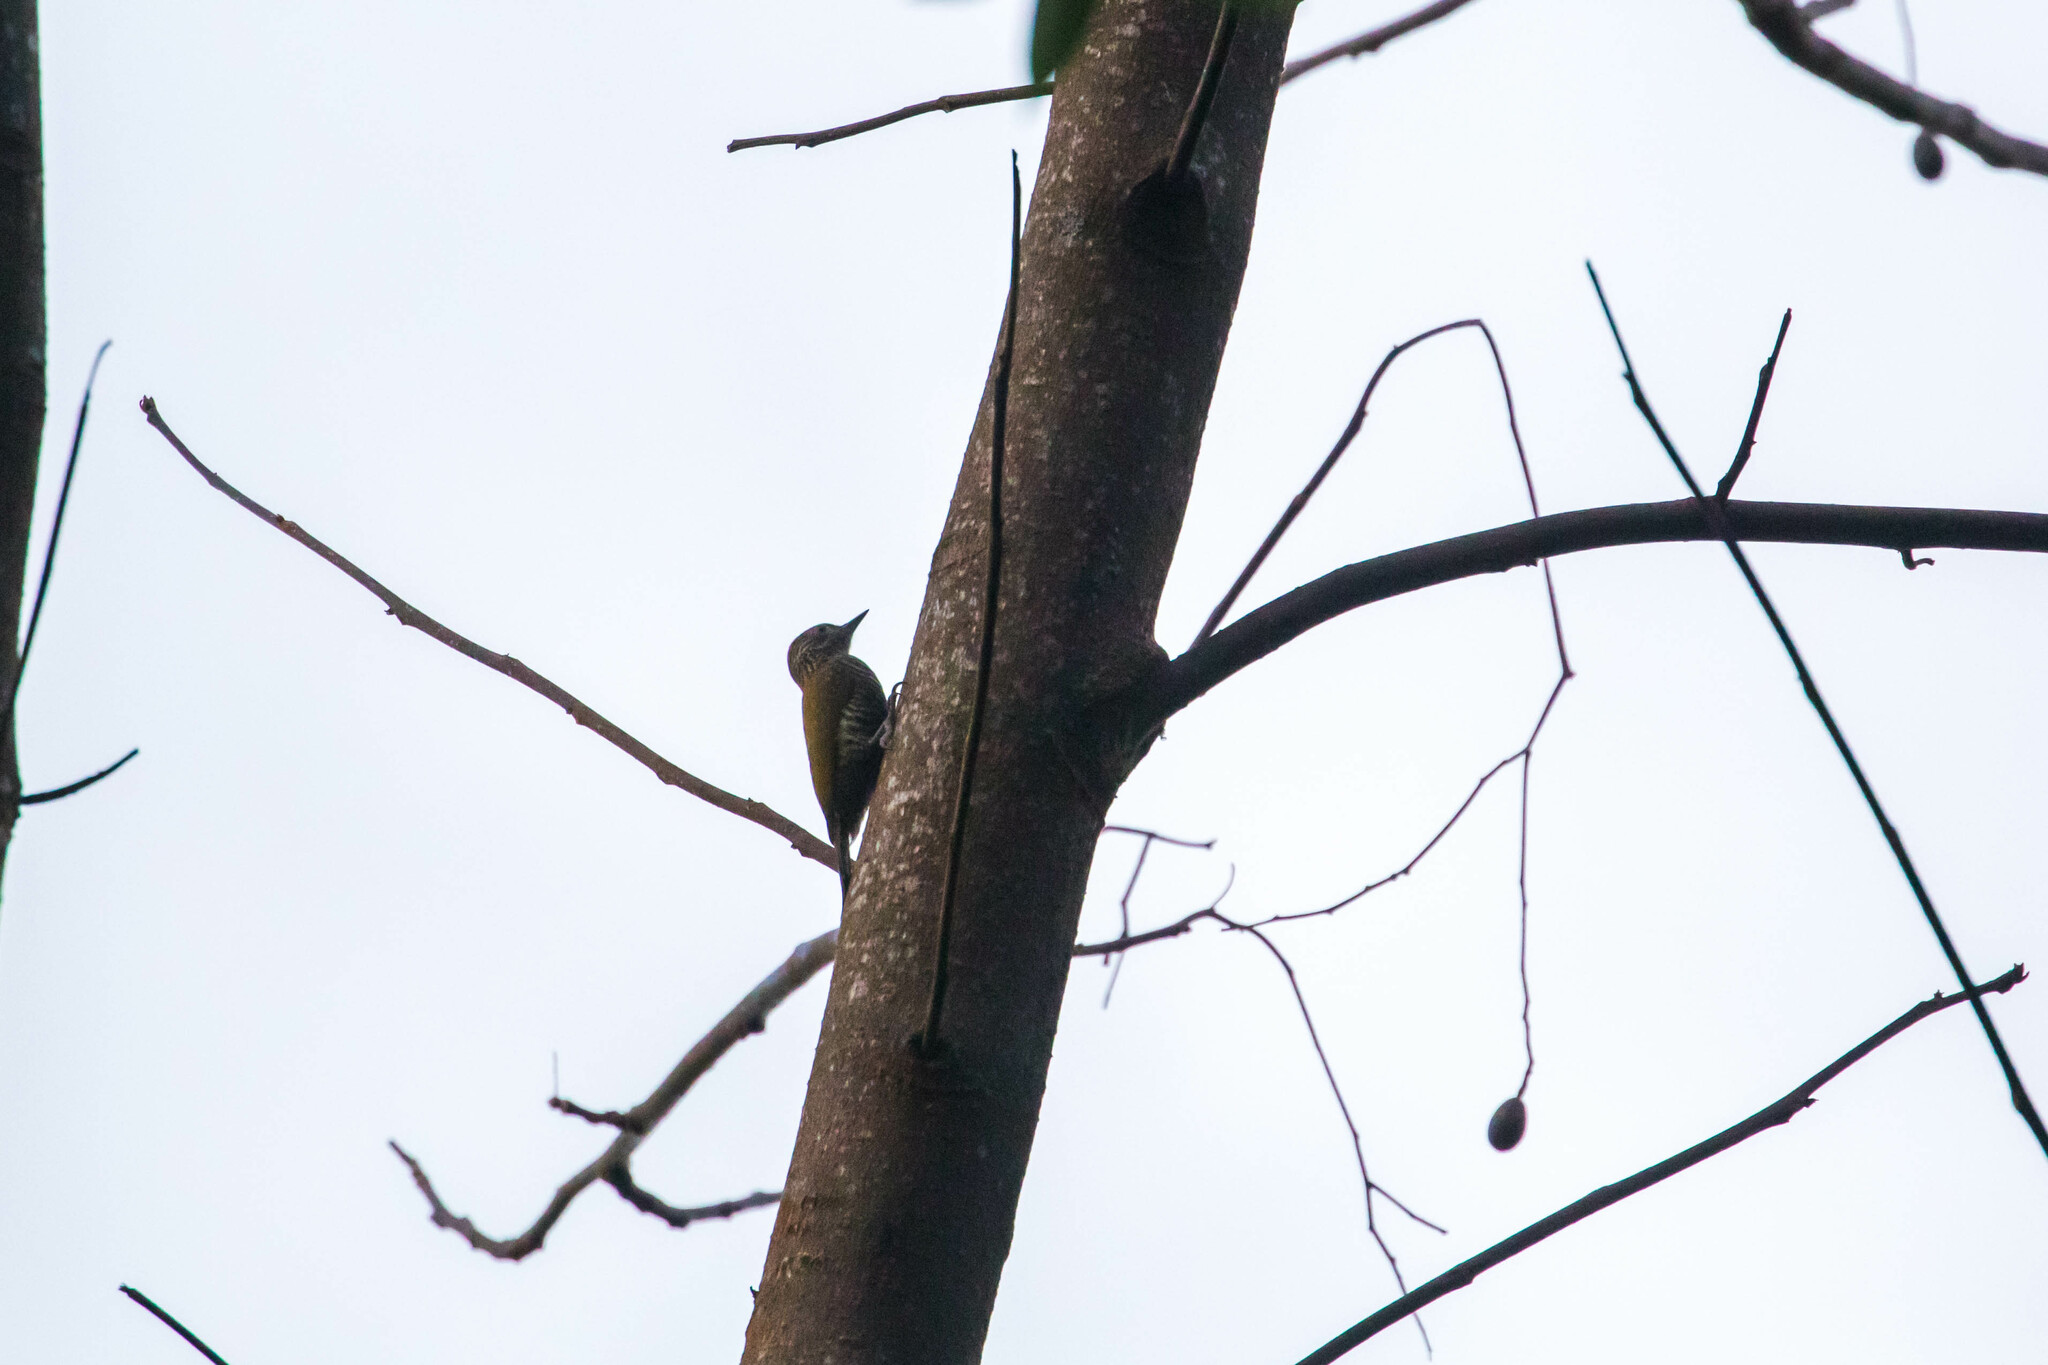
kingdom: Animalia
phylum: Chordata
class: Aves
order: Piciformes
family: Picidae
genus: Veniliornis
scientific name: Veniliornis kirkii
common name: Red-rumped woodpecker
